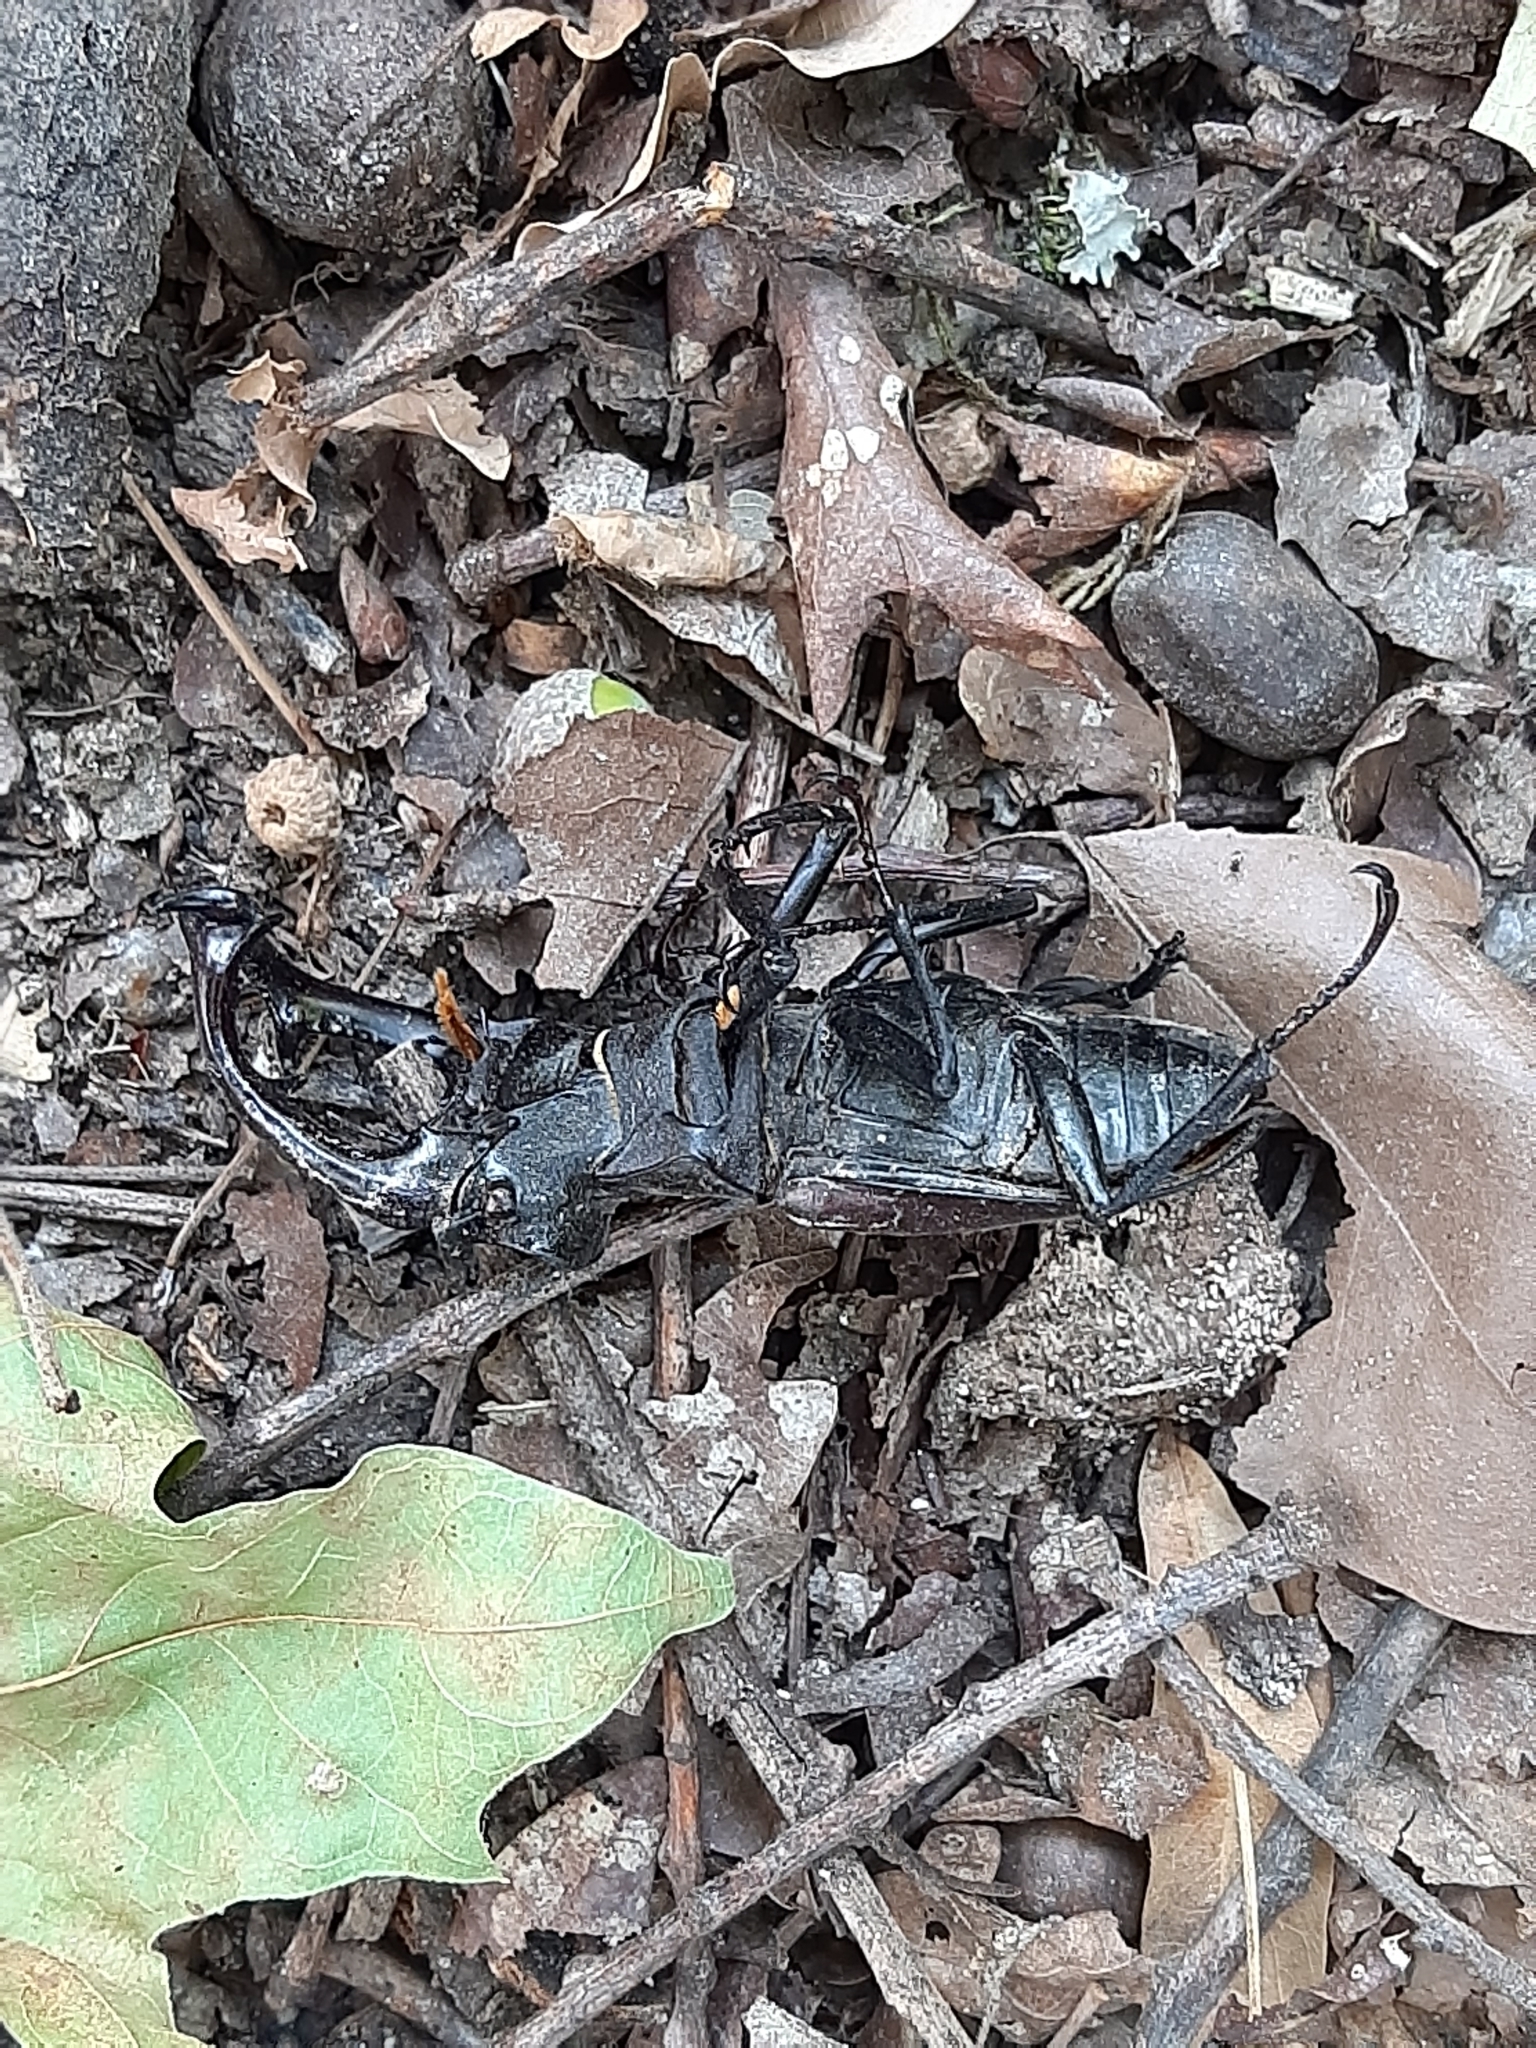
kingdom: Animalia
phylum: Arthropoda
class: Insecta
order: Coleoptera
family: Lucanidae
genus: Lucanus
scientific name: Lucanus cervus
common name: Stag beetle
